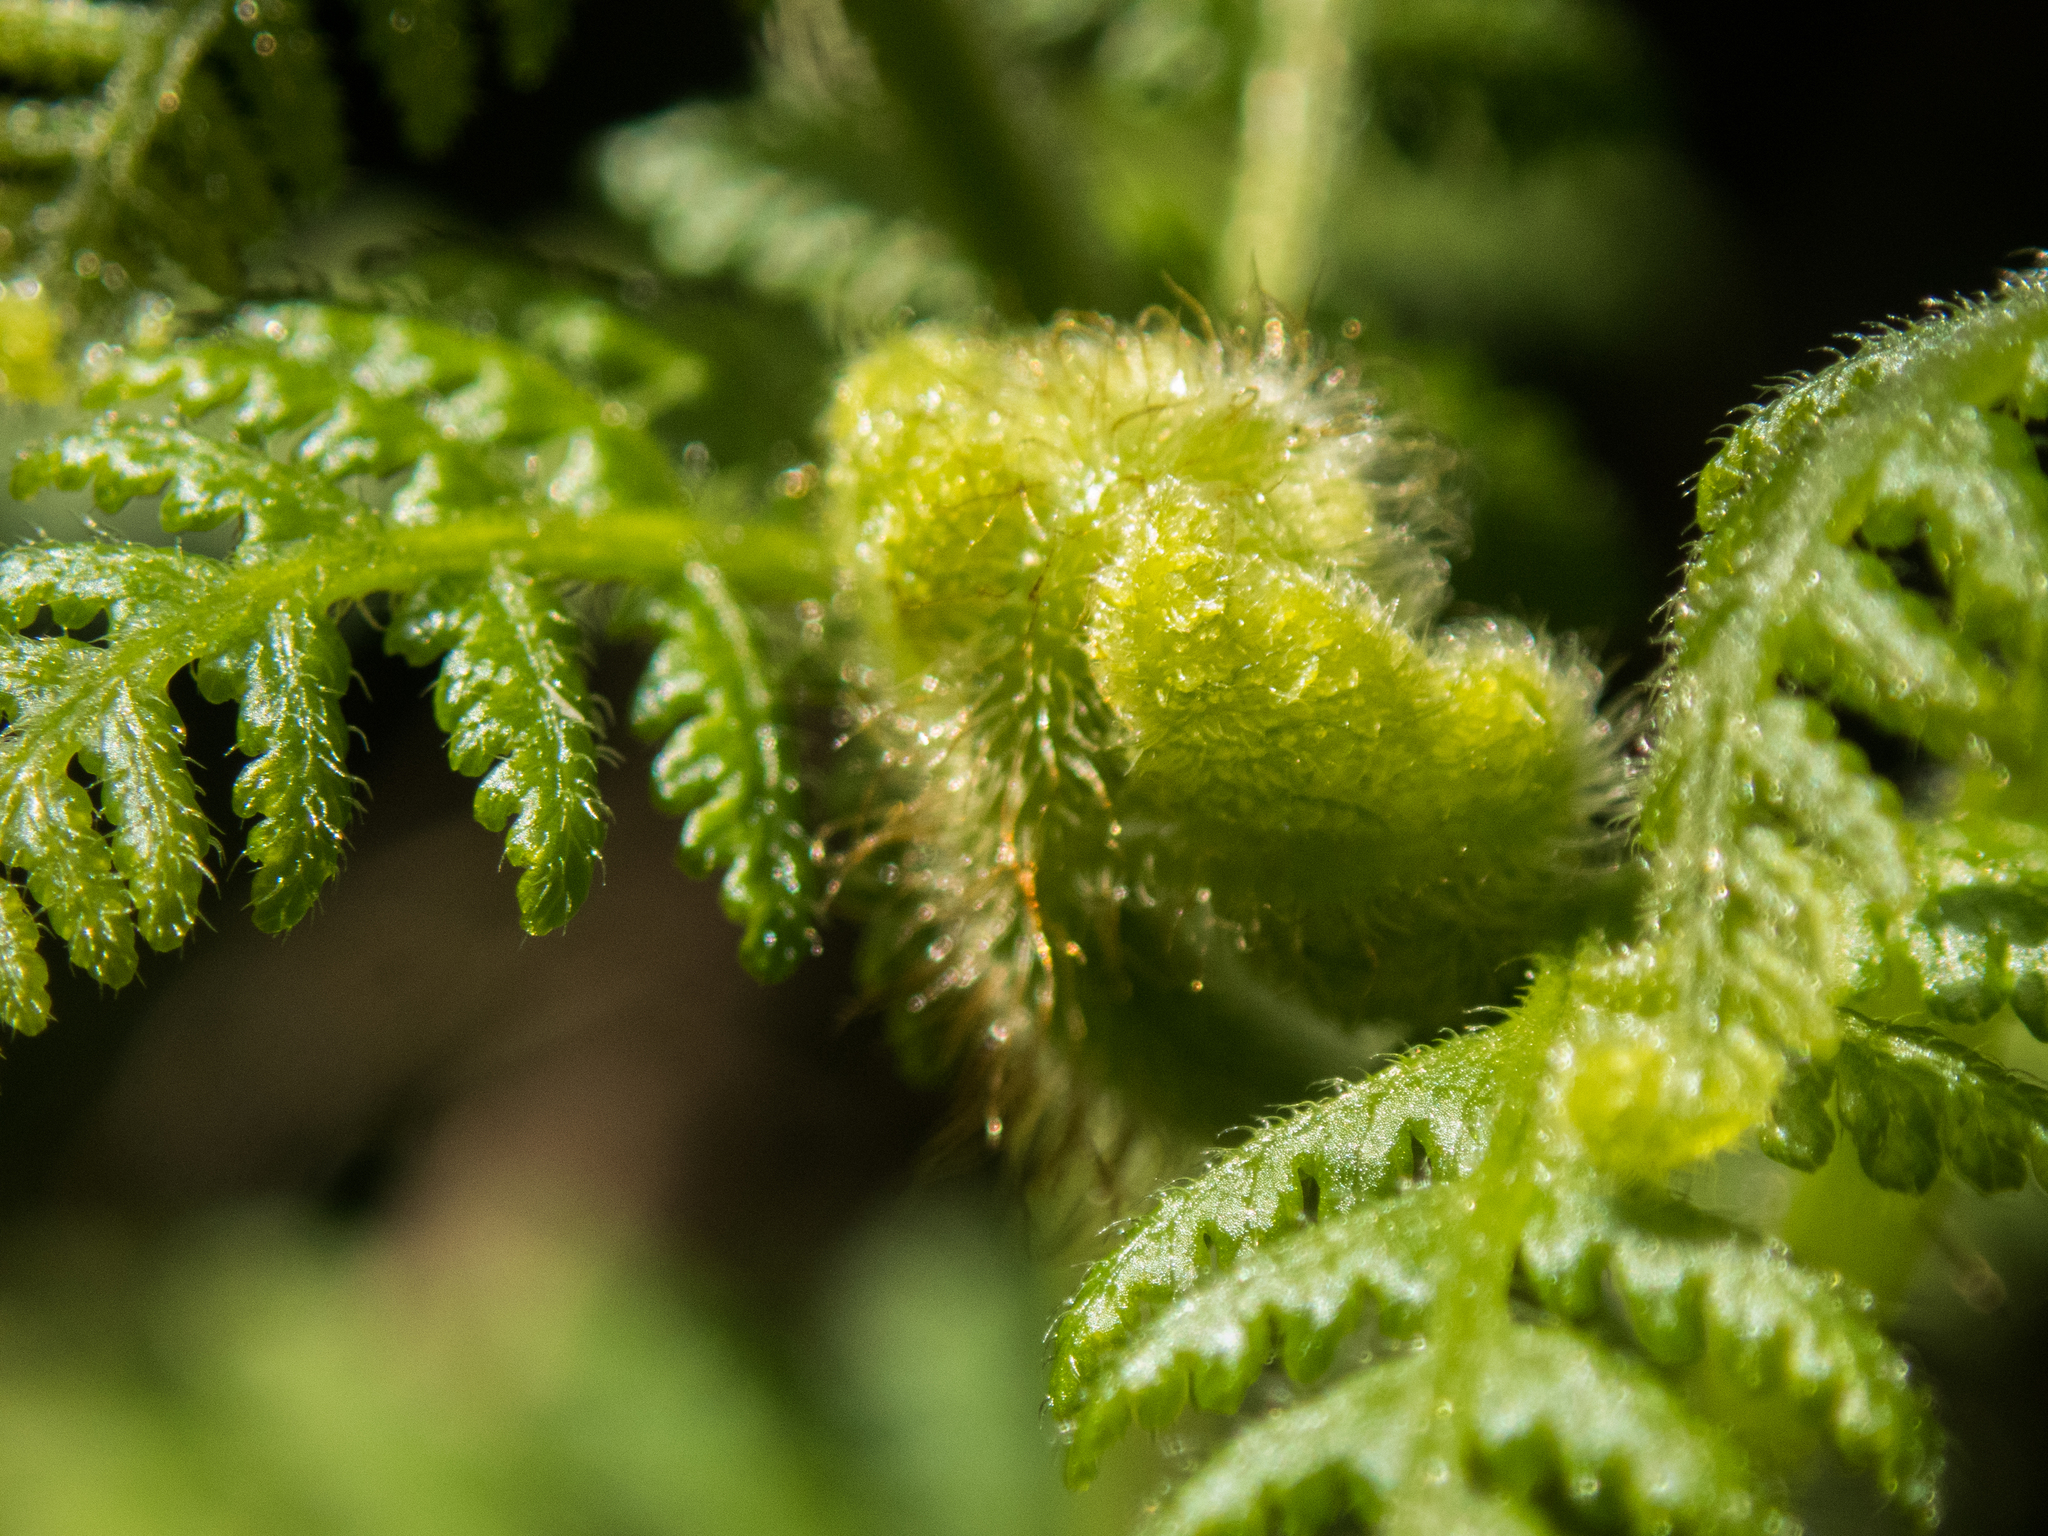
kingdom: Plantae
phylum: Tracheophyta
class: Polypodiopsida
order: Polypodiales
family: Dennstaedtiaceae
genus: Hypolepis
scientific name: Hypolepis ambigua
